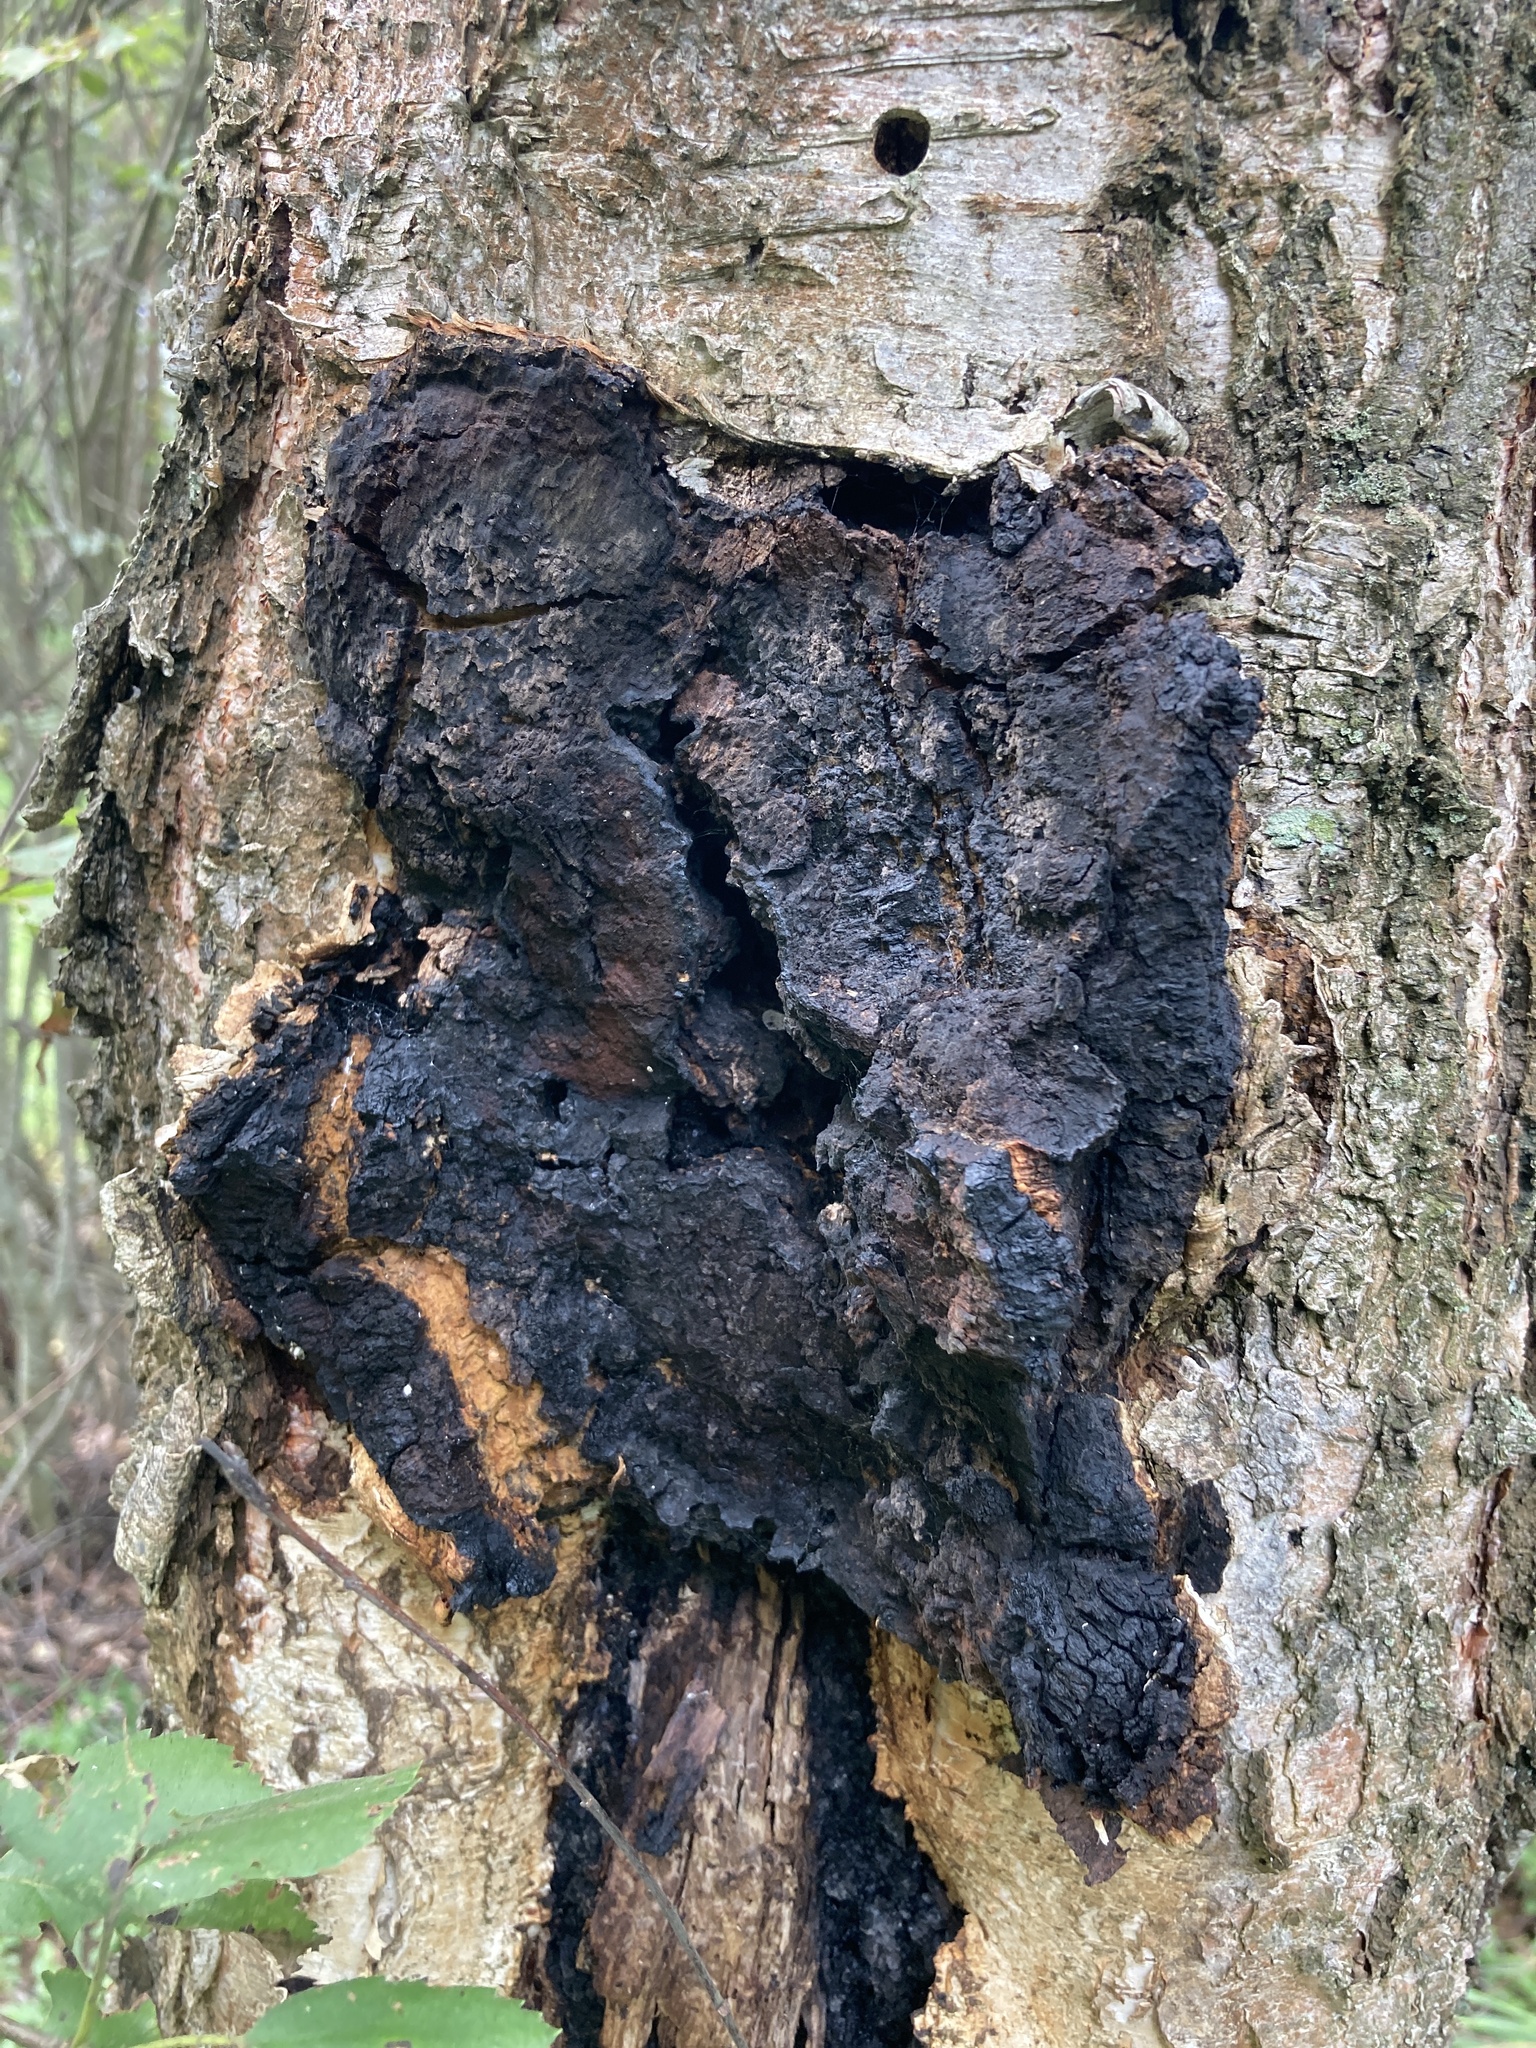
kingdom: Fungi
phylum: Basidiomycota
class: Agaricomycetes
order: Hymenochaetales
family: Hymenochaetaceae
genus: Inonotus
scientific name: Inonotus obliquus
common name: Chaga
